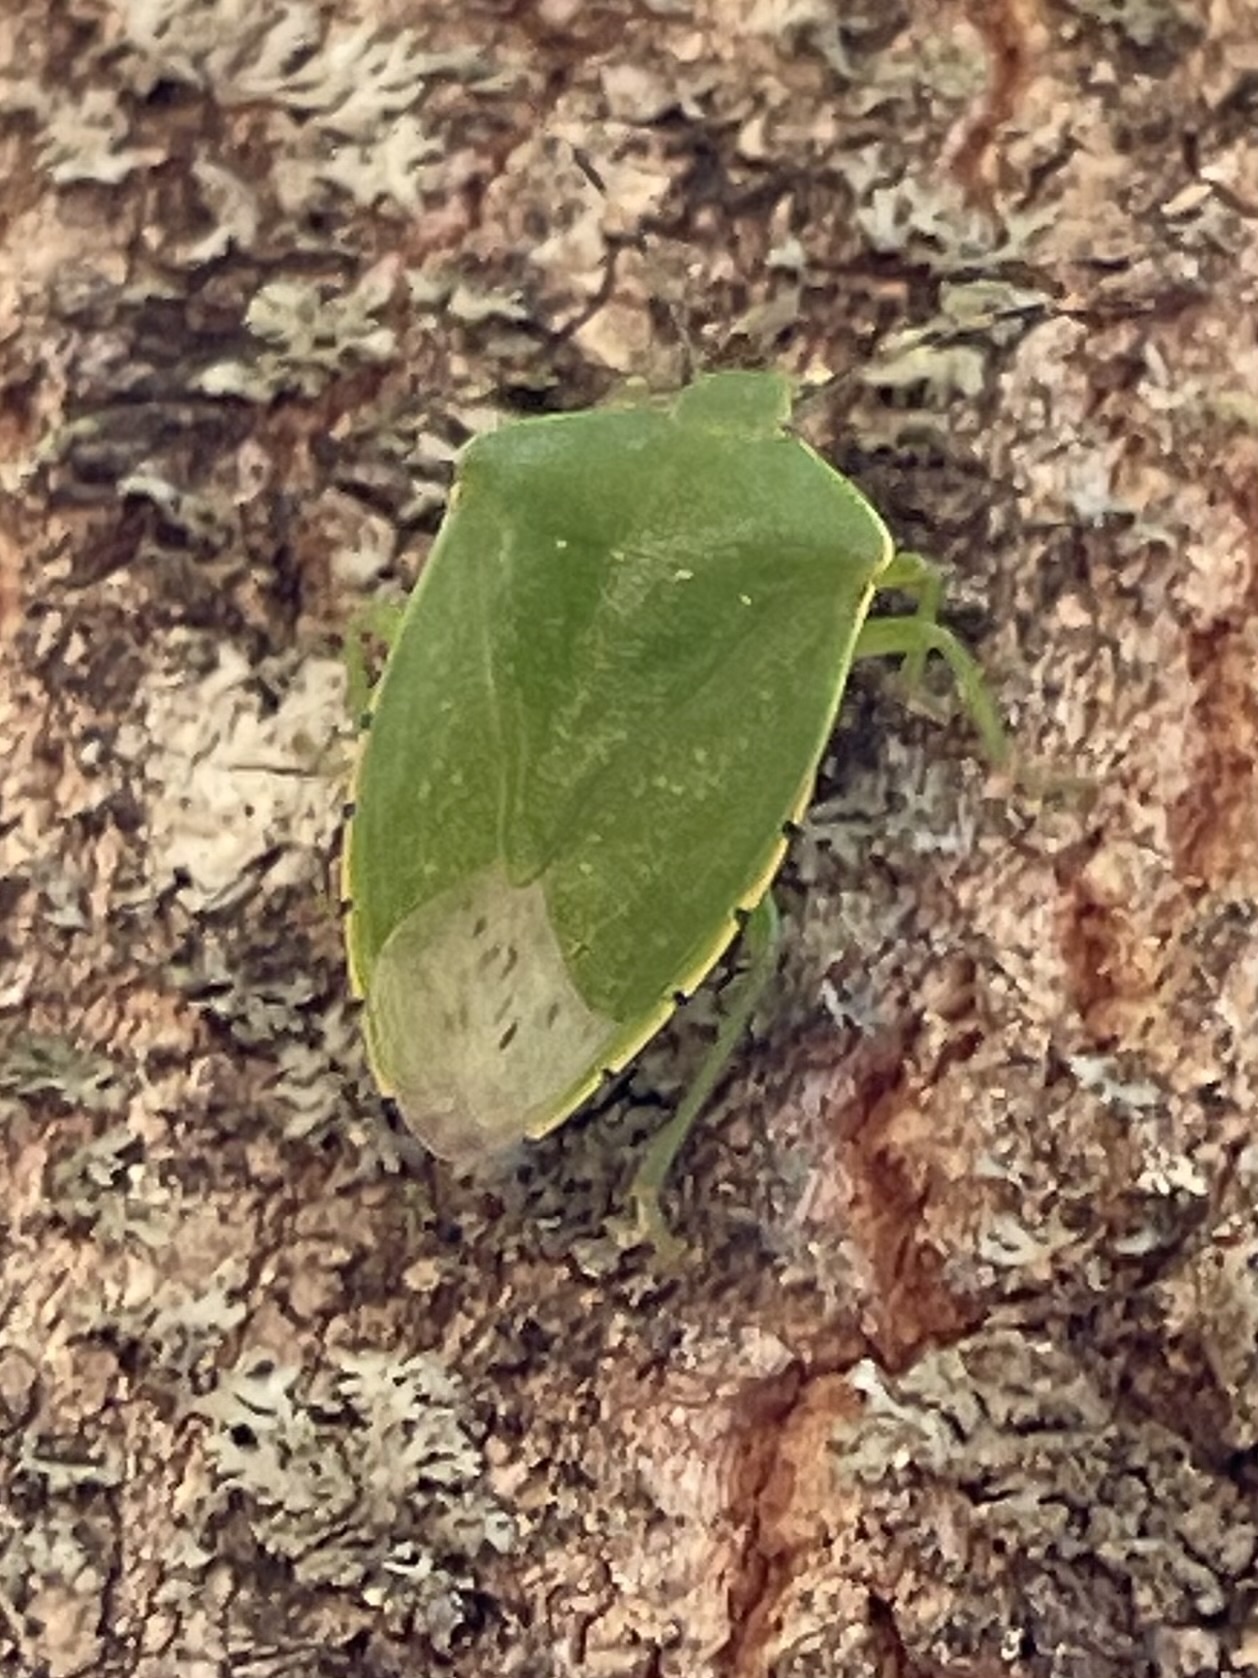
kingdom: Animalia
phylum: Arthropoda
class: Insecta
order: Hemiptera
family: Pentatomidae
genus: Chinavia
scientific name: Chinavia hilaris
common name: Green stink bug
